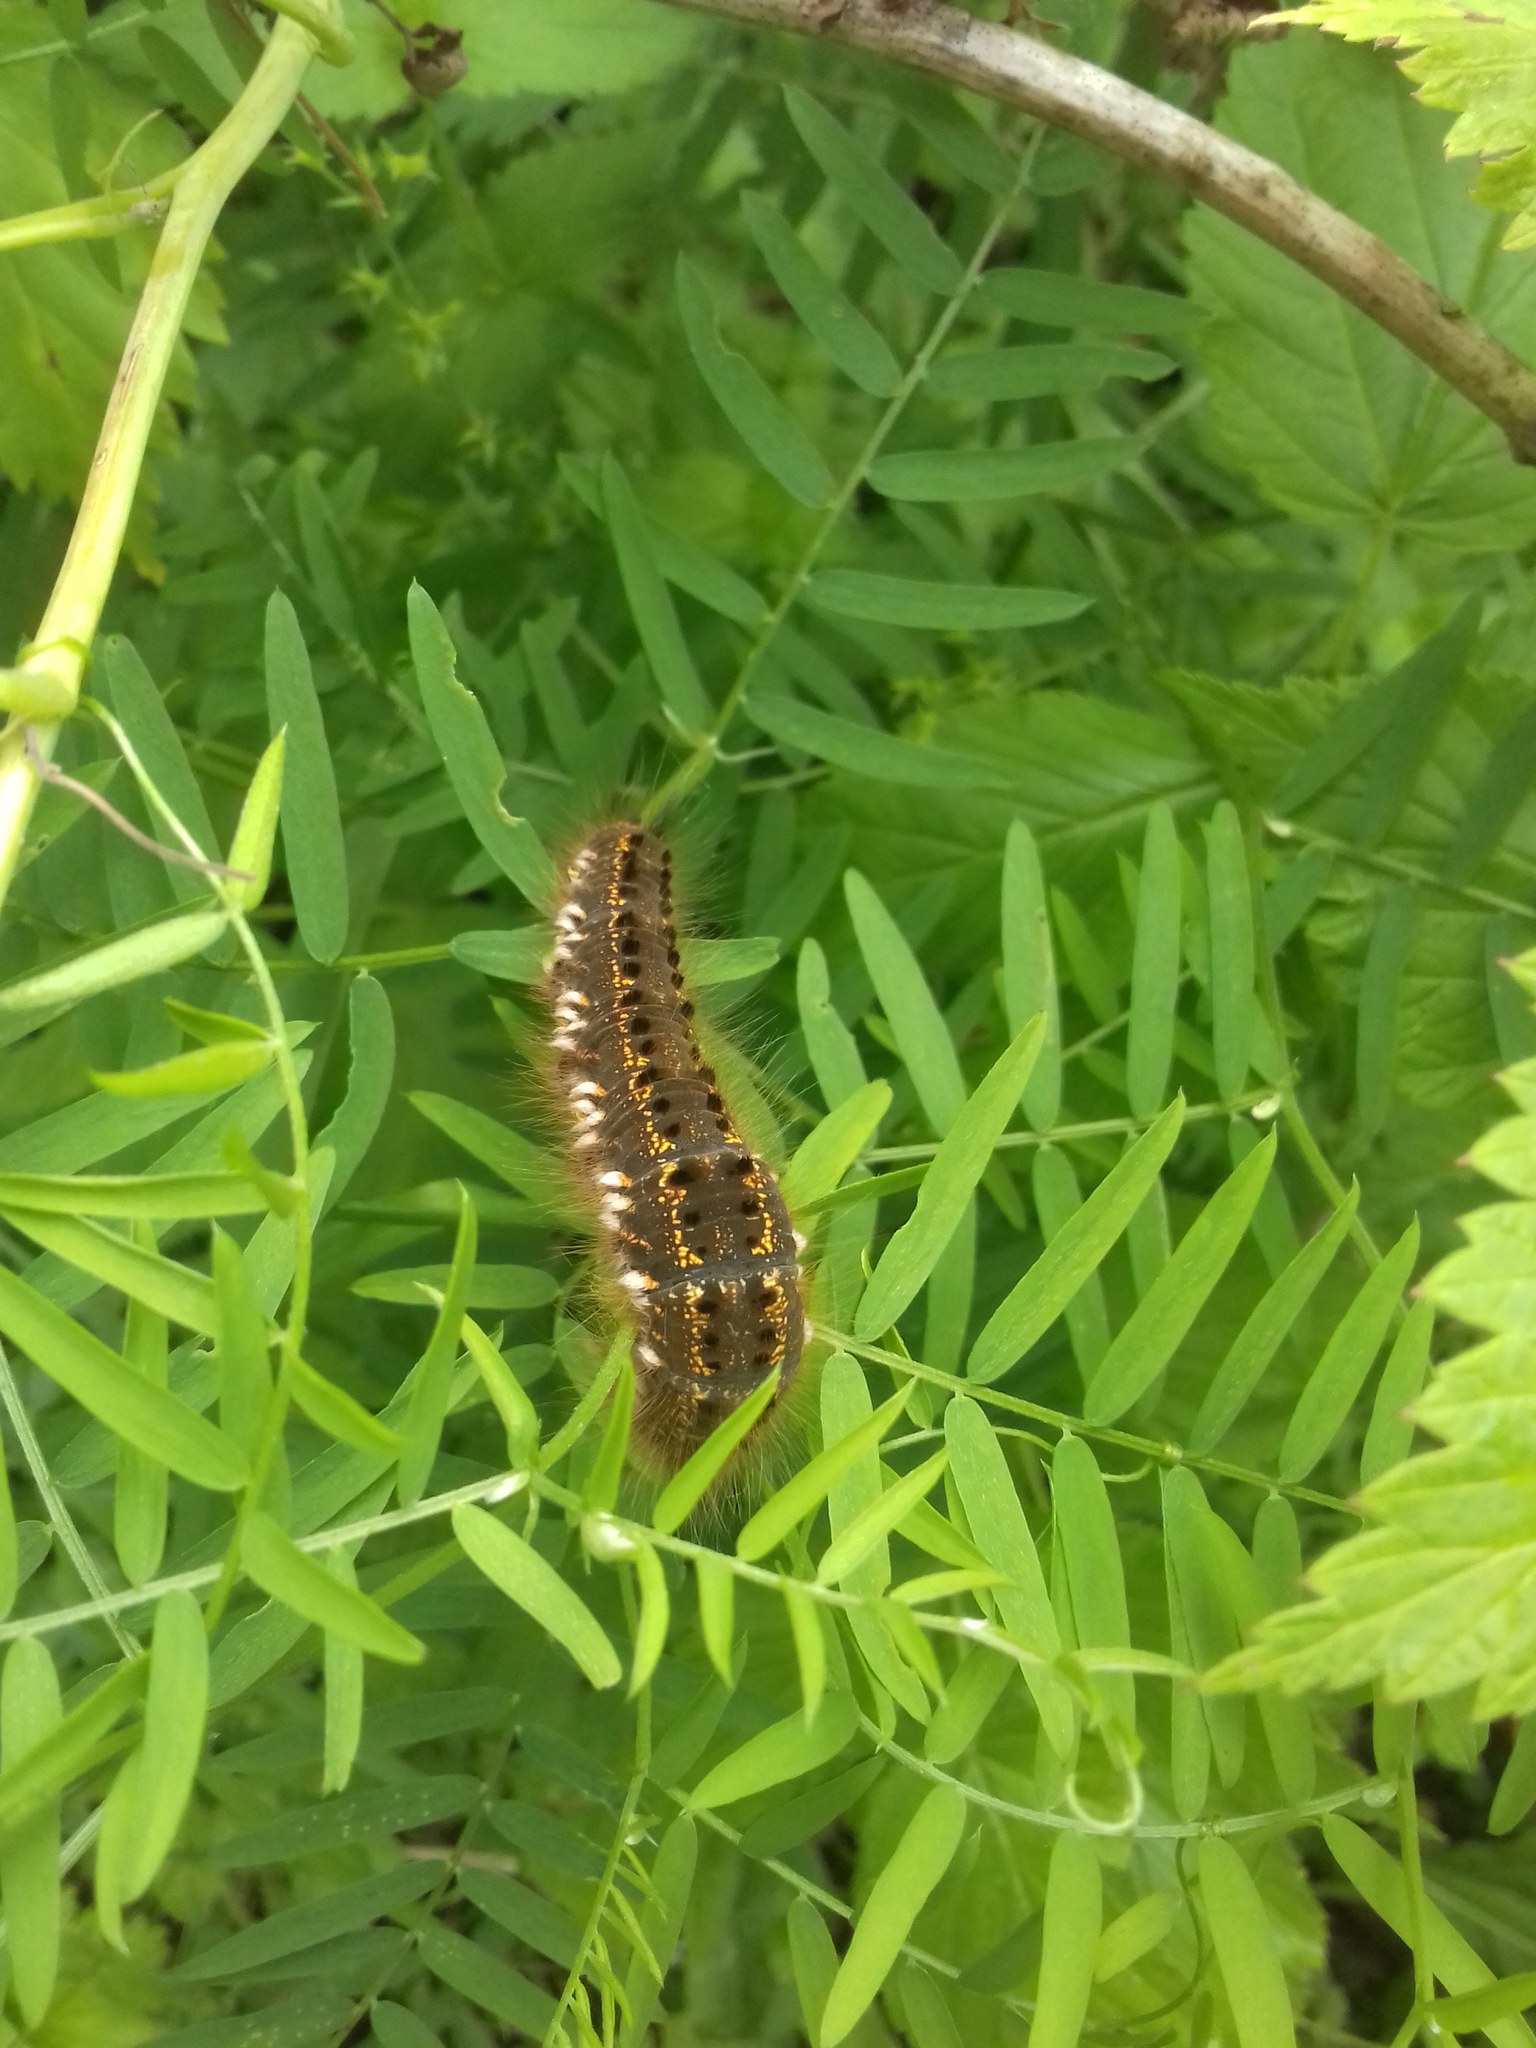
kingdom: Animalia
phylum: Arthropoda
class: Insecta
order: Lepidoptera
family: Lasiocampidae
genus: Euthrix
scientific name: Euthrix potatoria
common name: Drinker
